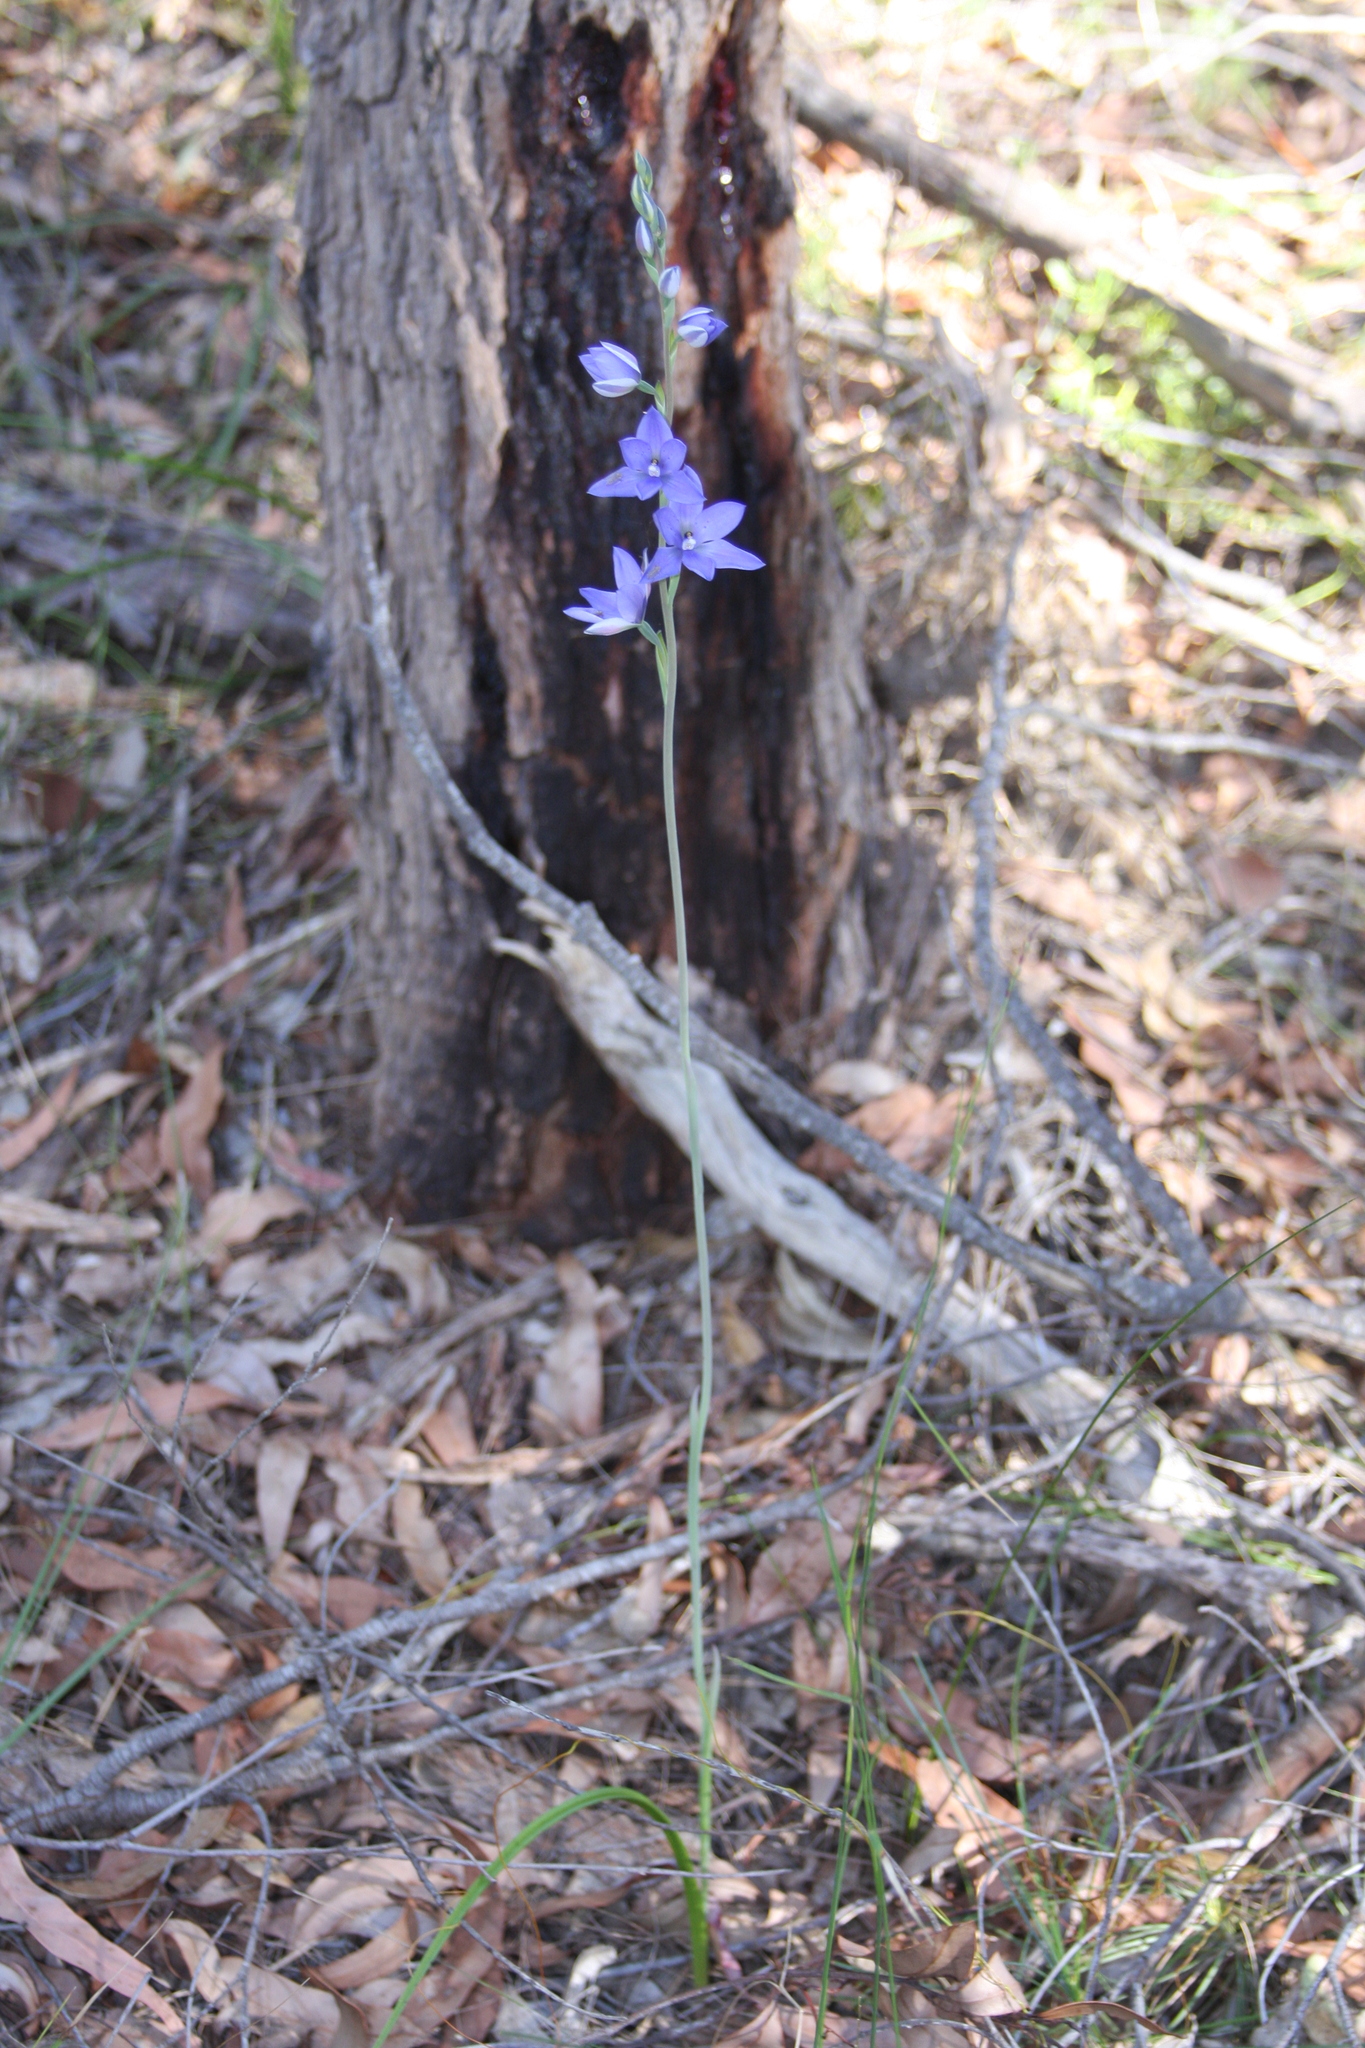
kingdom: Plantae
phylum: Tracheophyta
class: Liliopsida
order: Asparagales
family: Orchidaceae
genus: Thelymitra
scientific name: Thelymitra ixioides
